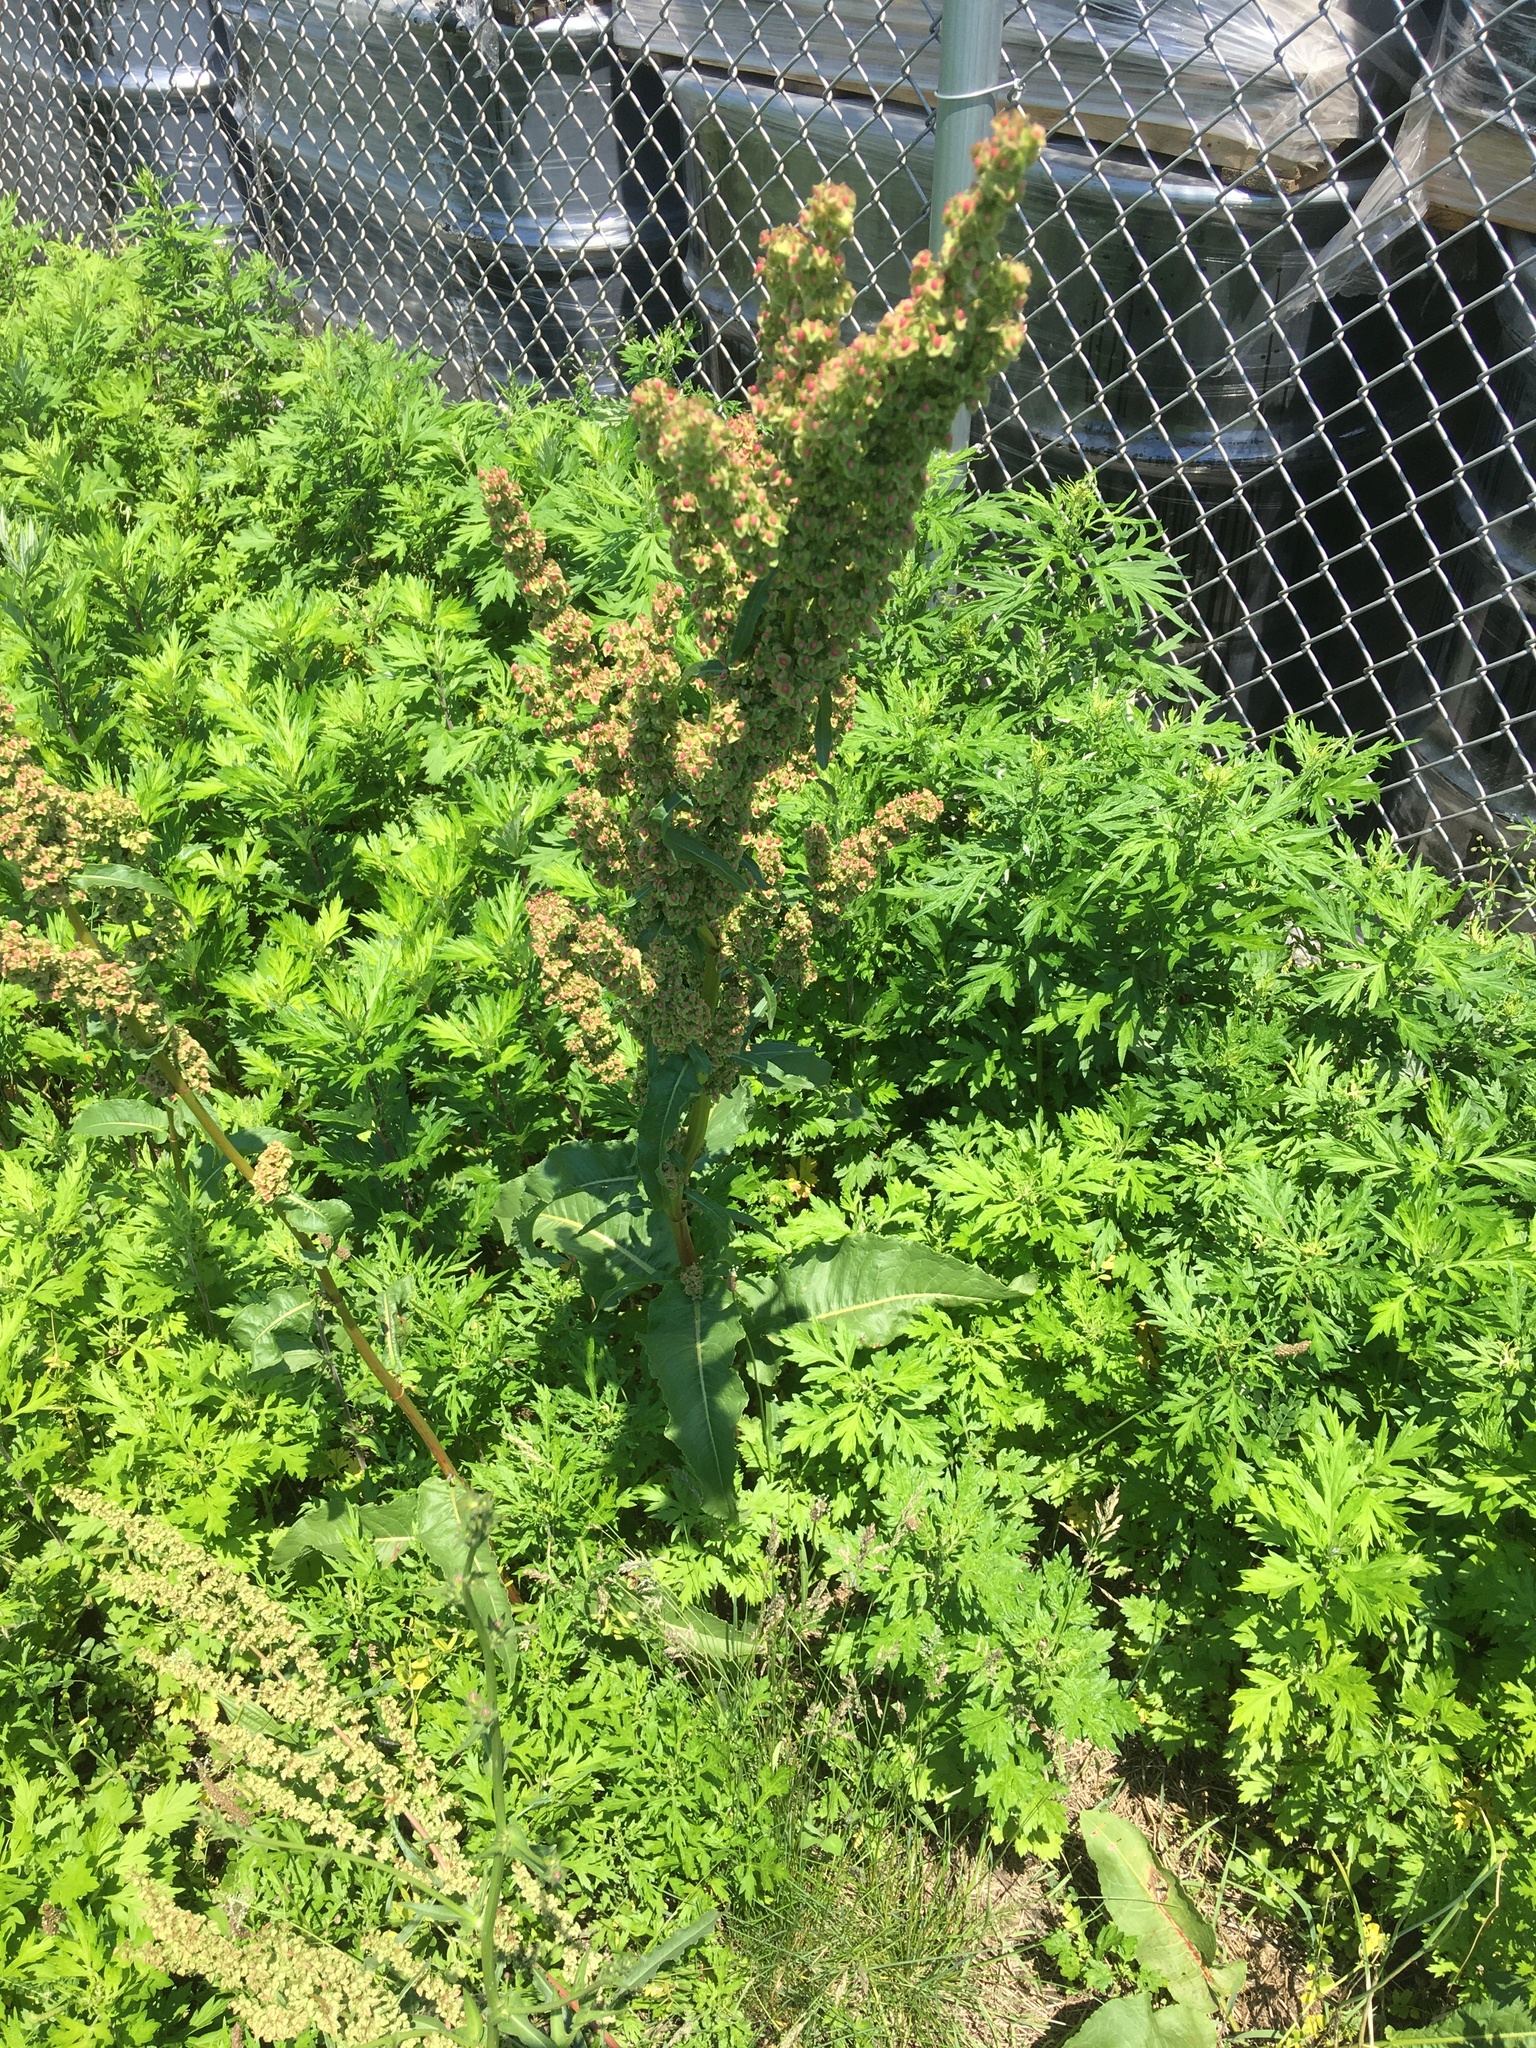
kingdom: Plantae
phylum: Tracheophyta
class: Magnoliopsida
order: Caryophyllales
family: Polygonaceae
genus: Rumex
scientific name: Rumex crispus
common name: Curled dock
